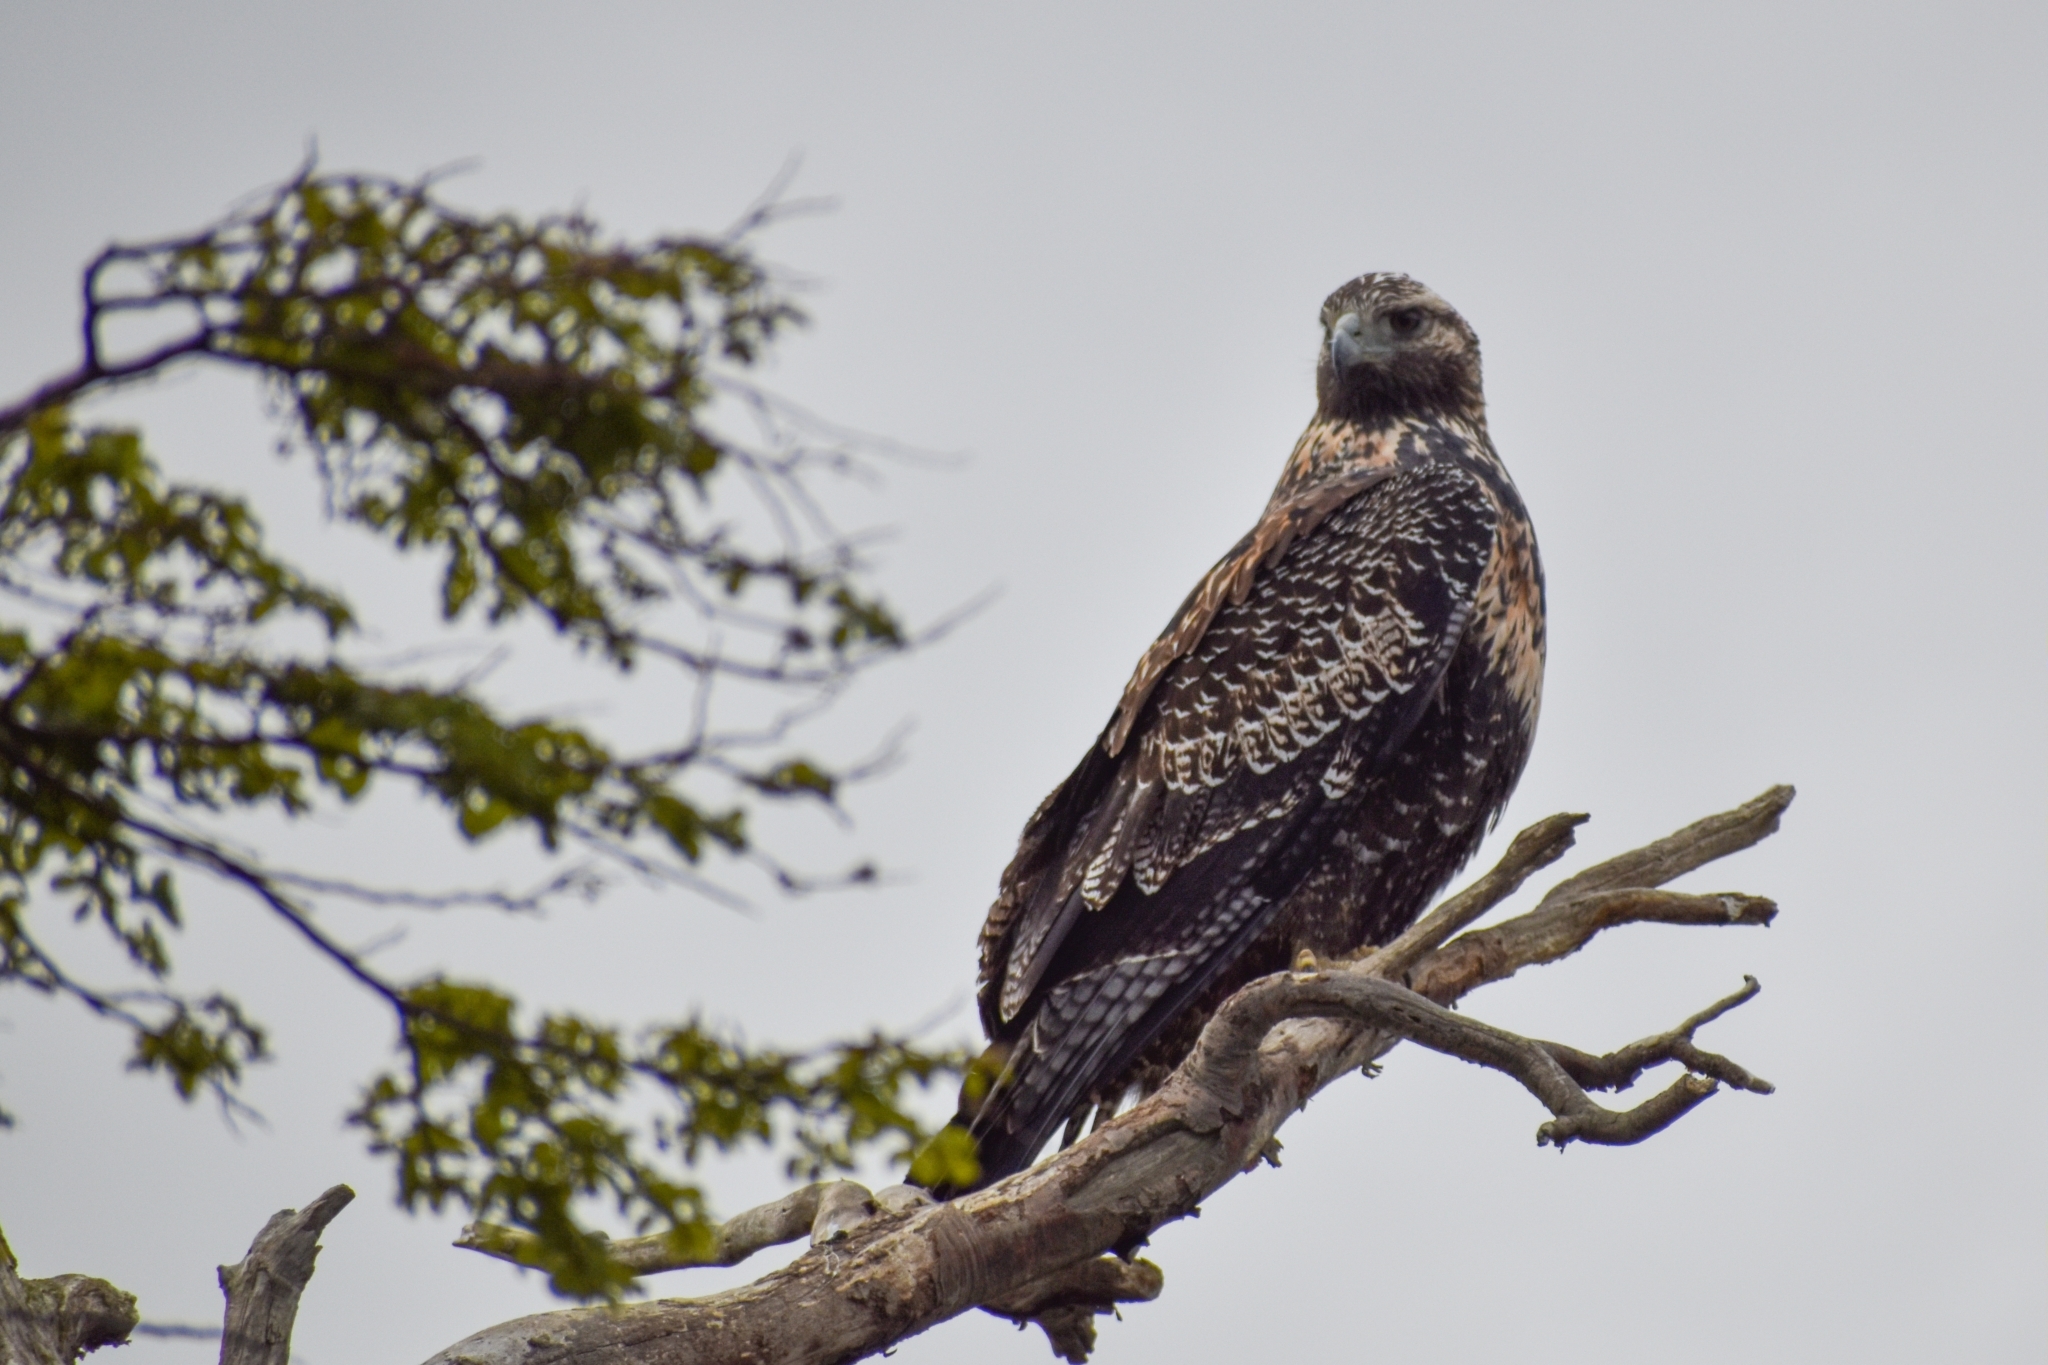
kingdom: Animalia
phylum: Chordata
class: Aves
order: Accipitriformes
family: Accipitridae
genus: Geranoaetus
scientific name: Geranoaetus melanoleucus
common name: Black-chested buzzard-eagle
